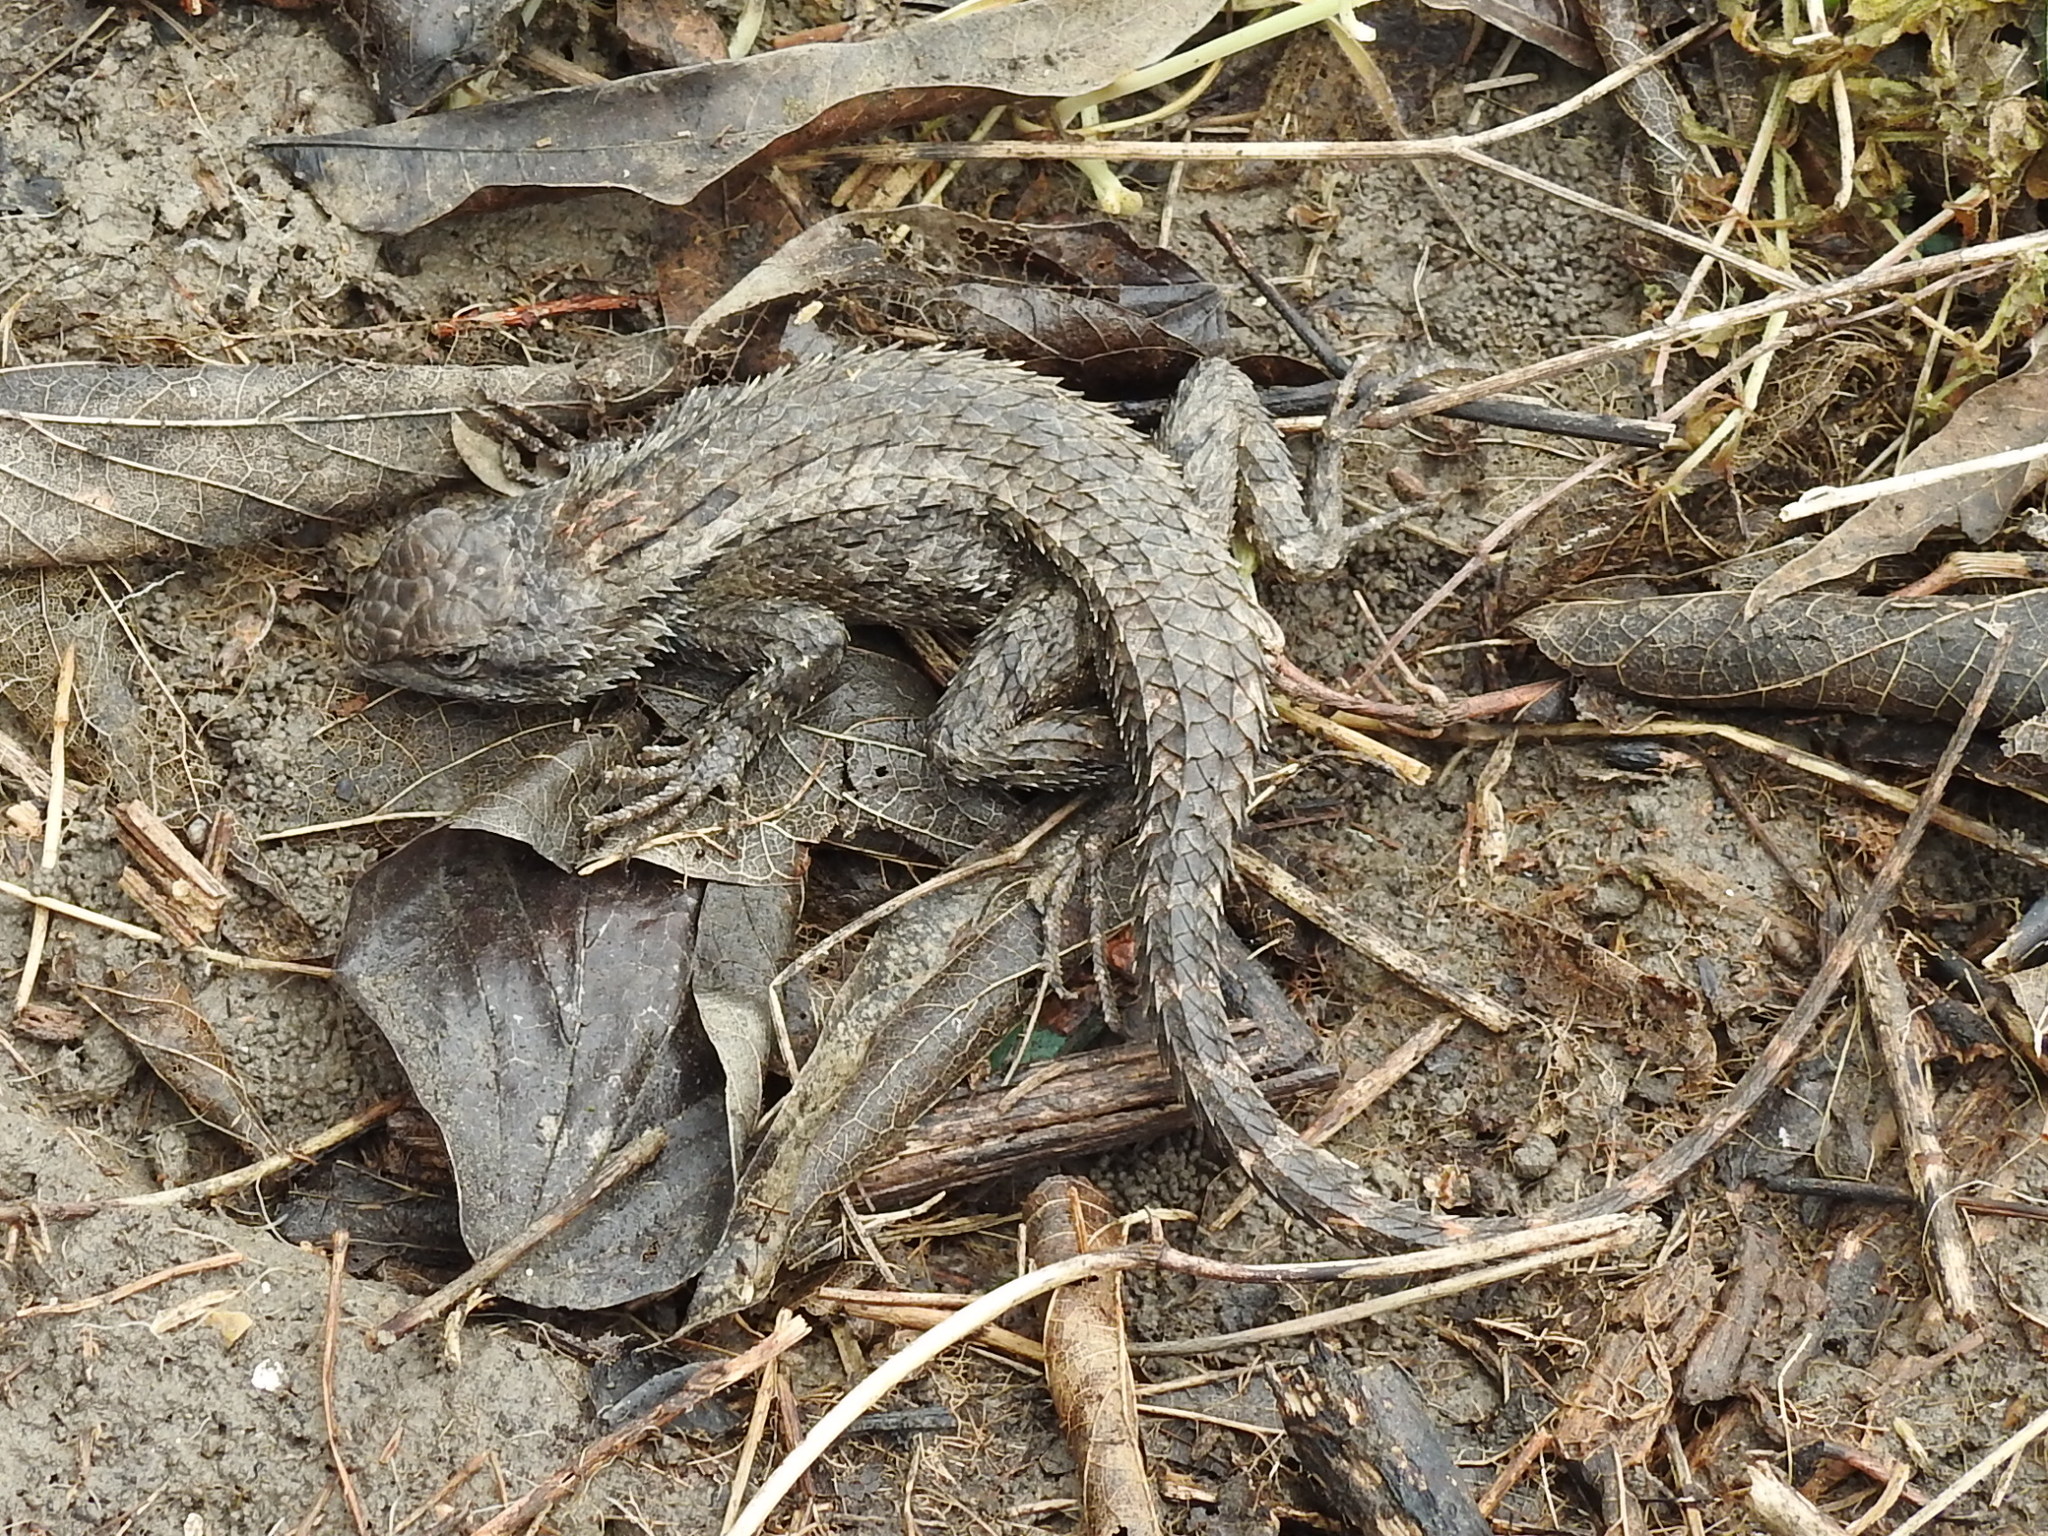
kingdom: Animalia
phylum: Chordata
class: Squamata
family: Phrynosomatidae
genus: Sceloporus
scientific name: Sceloporus olivaceus
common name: Texas spiny lizard
